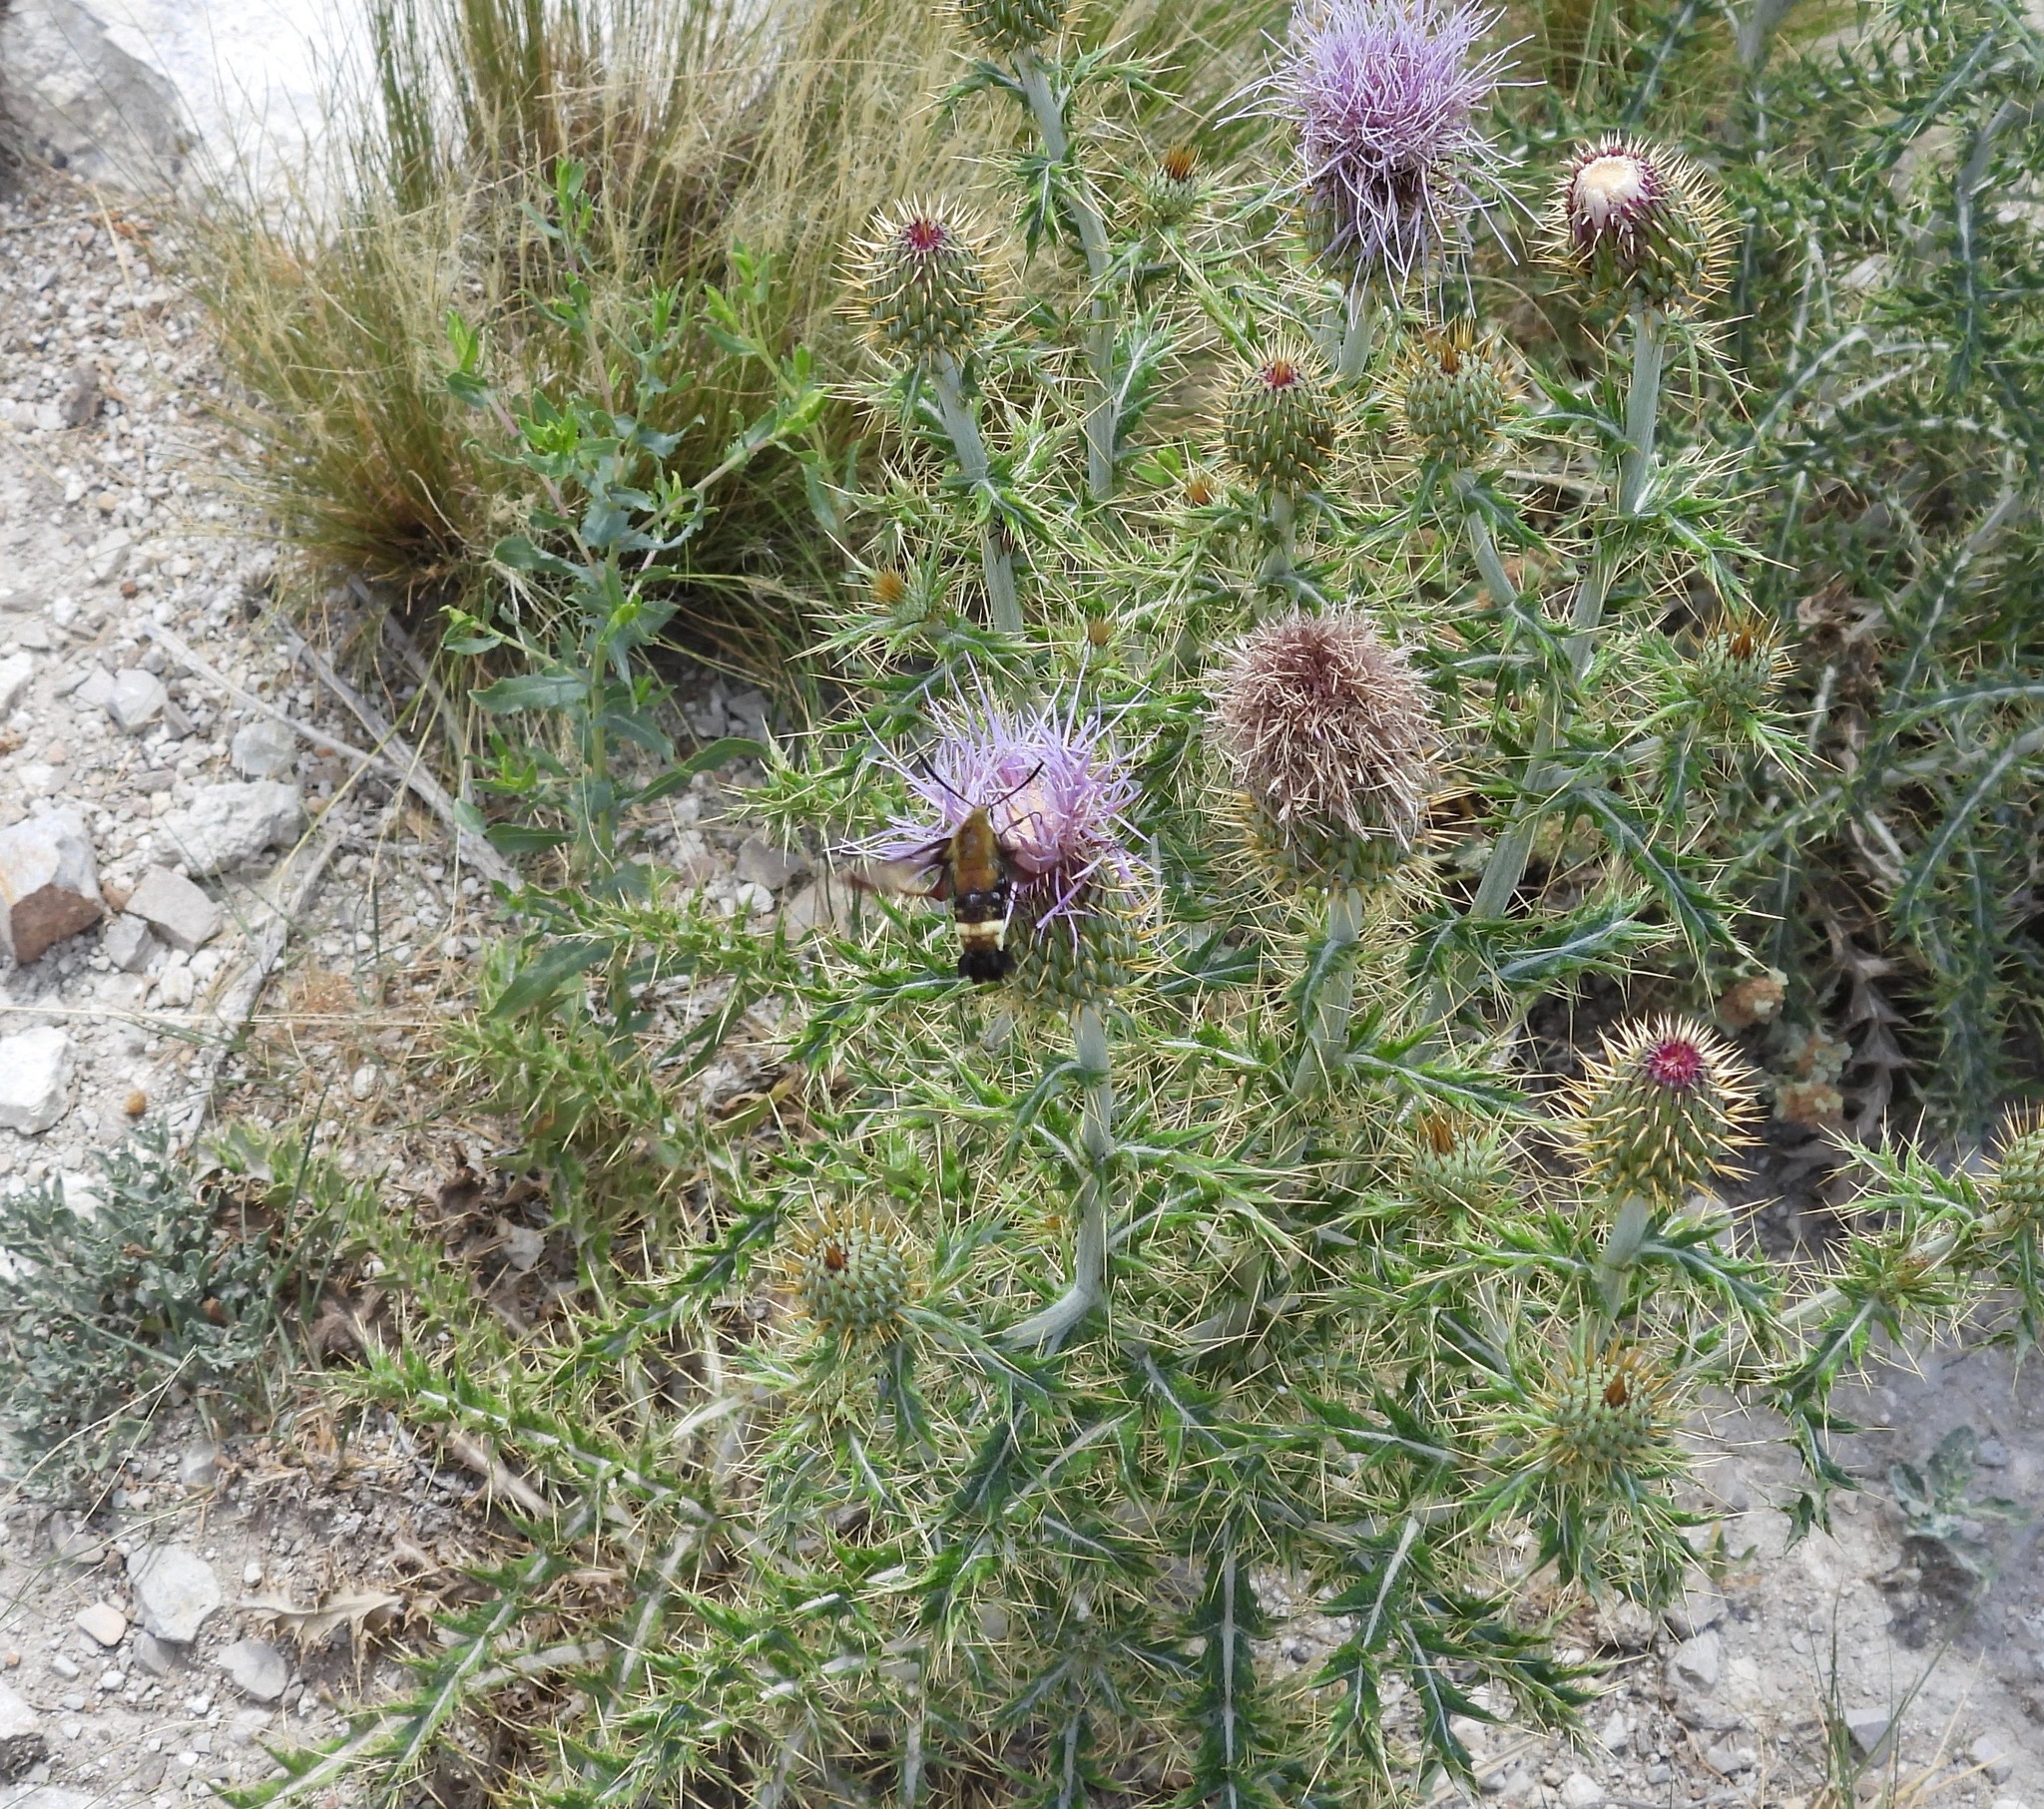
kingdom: Animalia
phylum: Arthropoda
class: Insecta
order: Lepidoptera
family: Sphingidae
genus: Hemaris
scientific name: Hemaris thetis
